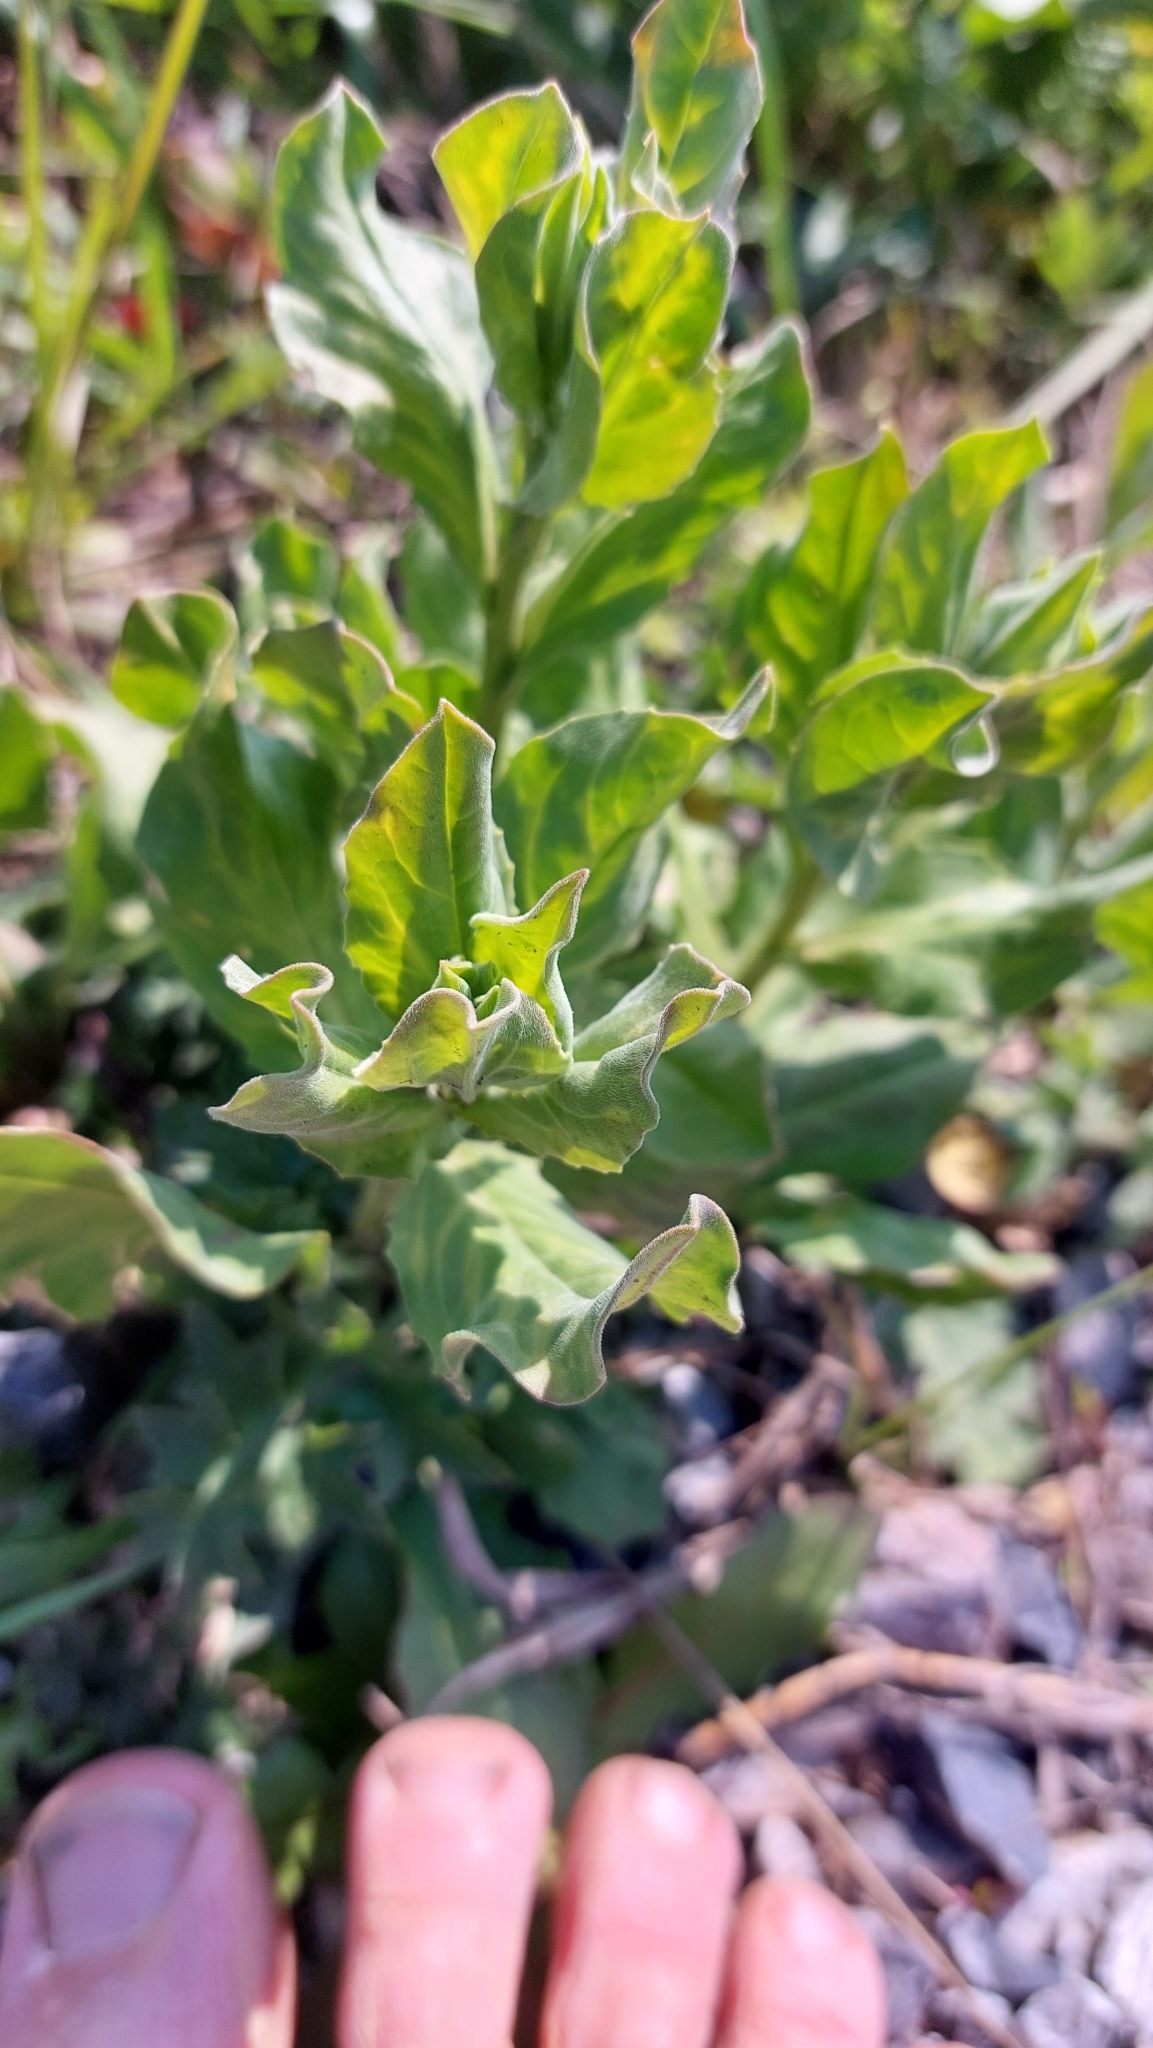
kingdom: Plantae
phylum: Tracheophyta
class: Magnoliopsida
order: Brassicales
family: Brassicaceae
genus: Lepidium
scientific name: Lepidium draba
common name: Hoary cress
